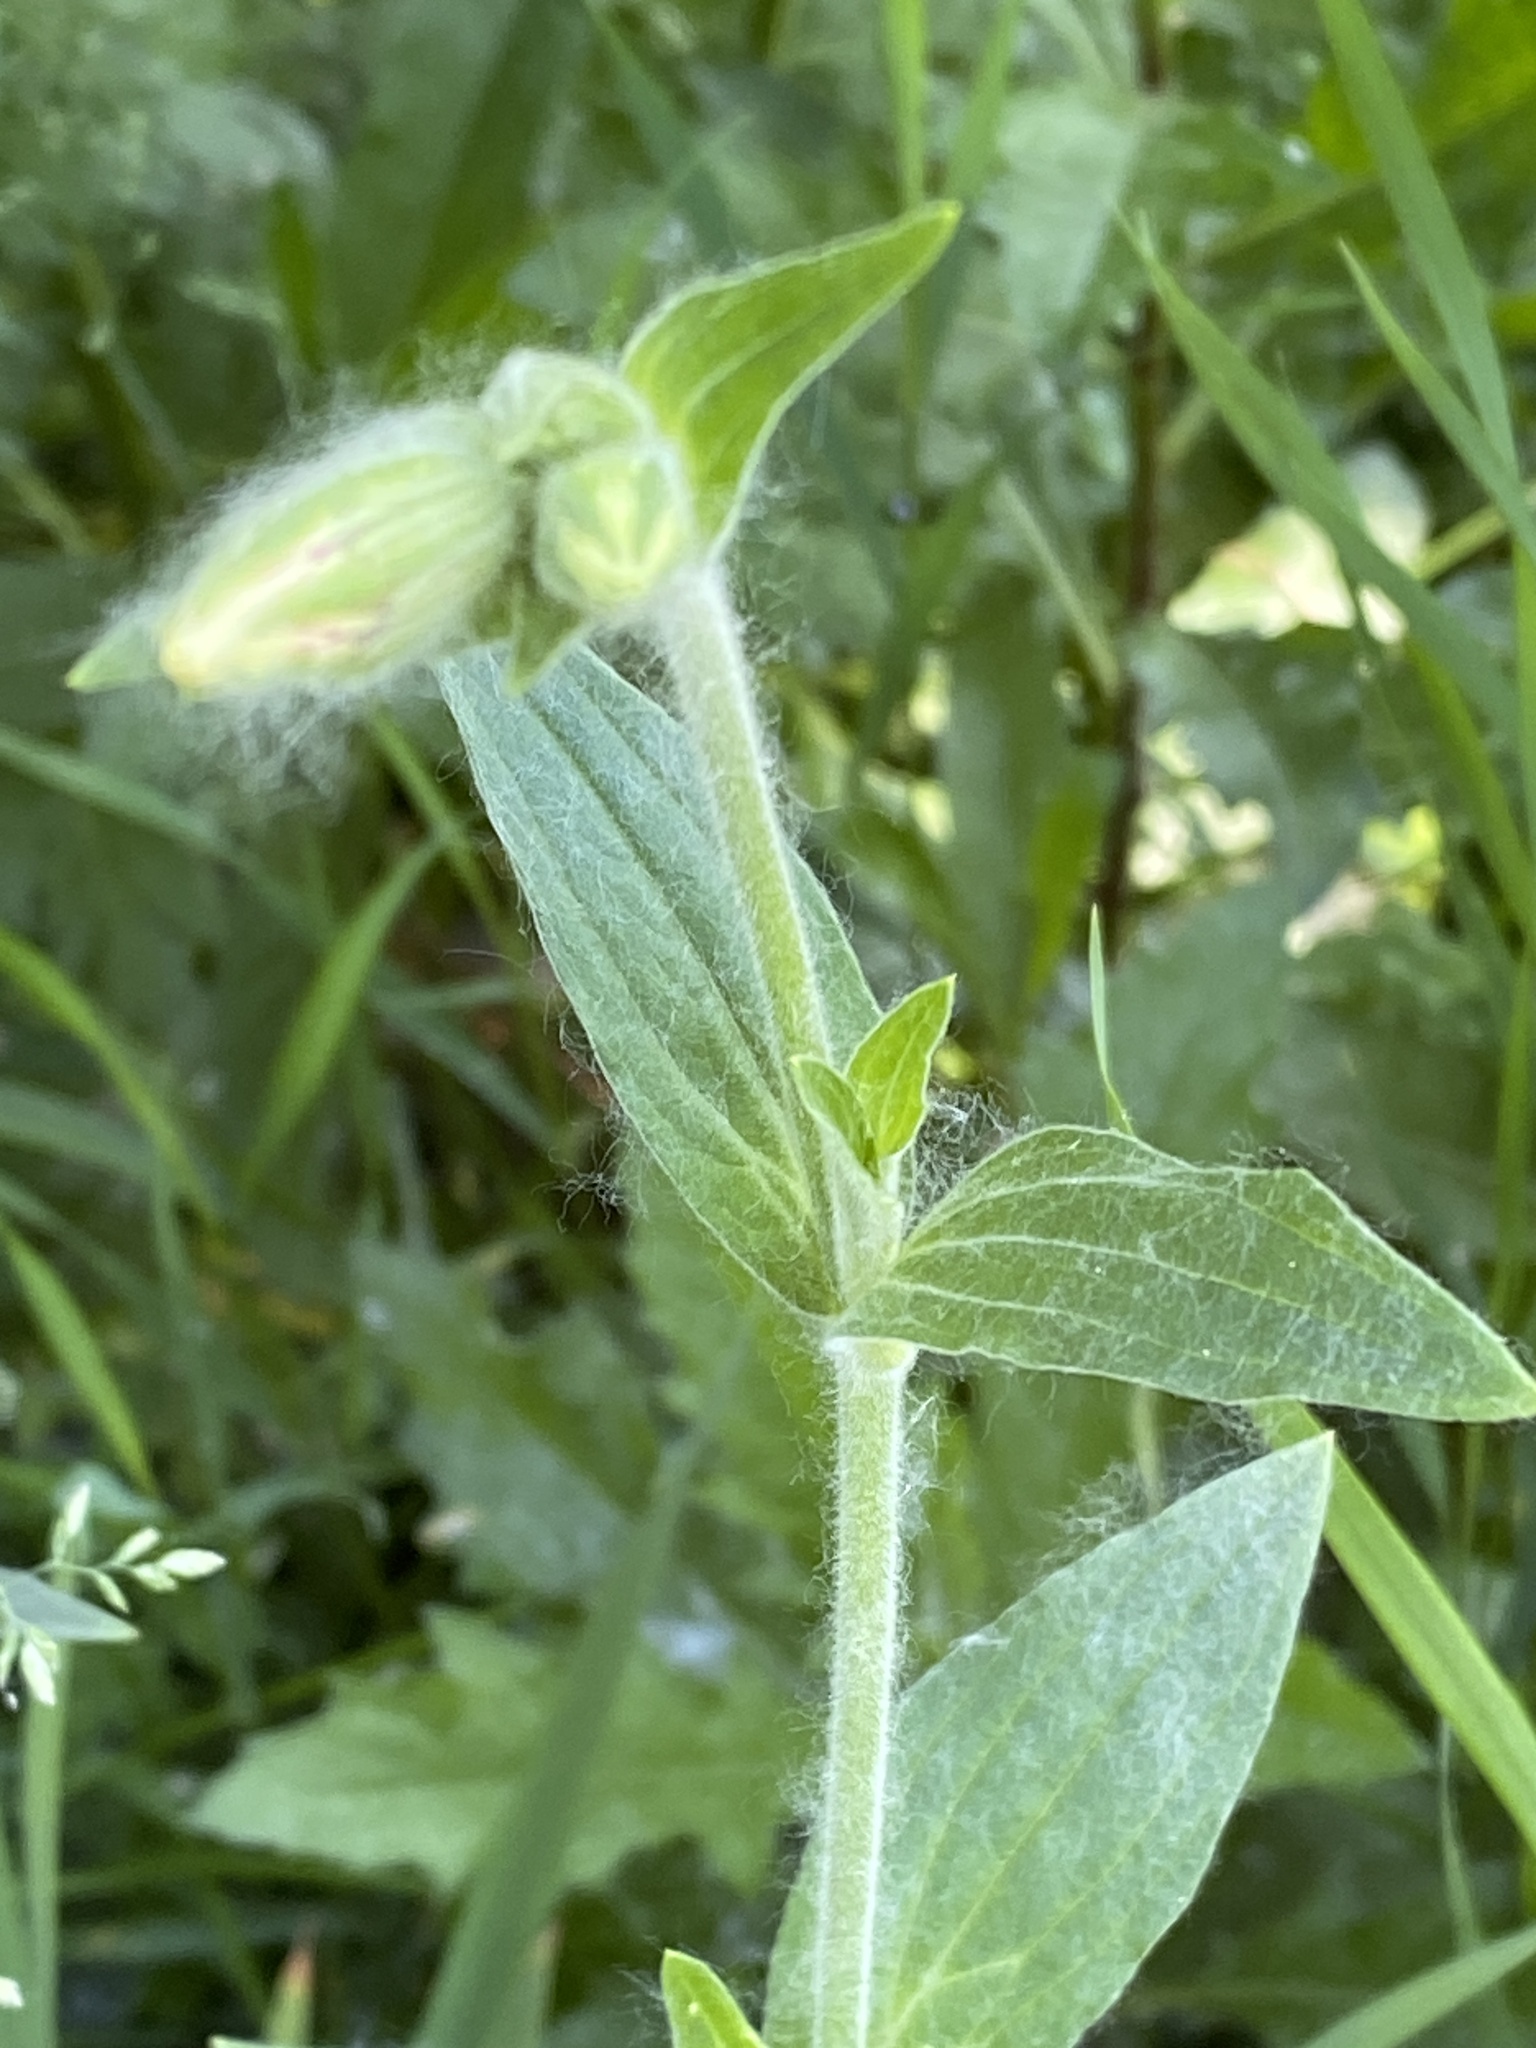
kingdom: Plantae
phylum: Tracheophyta
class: Magnoliopsida
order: Caryophyllales
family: Caryophyllaceae
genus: Silene
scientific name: Silene latifolia
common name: White campion
